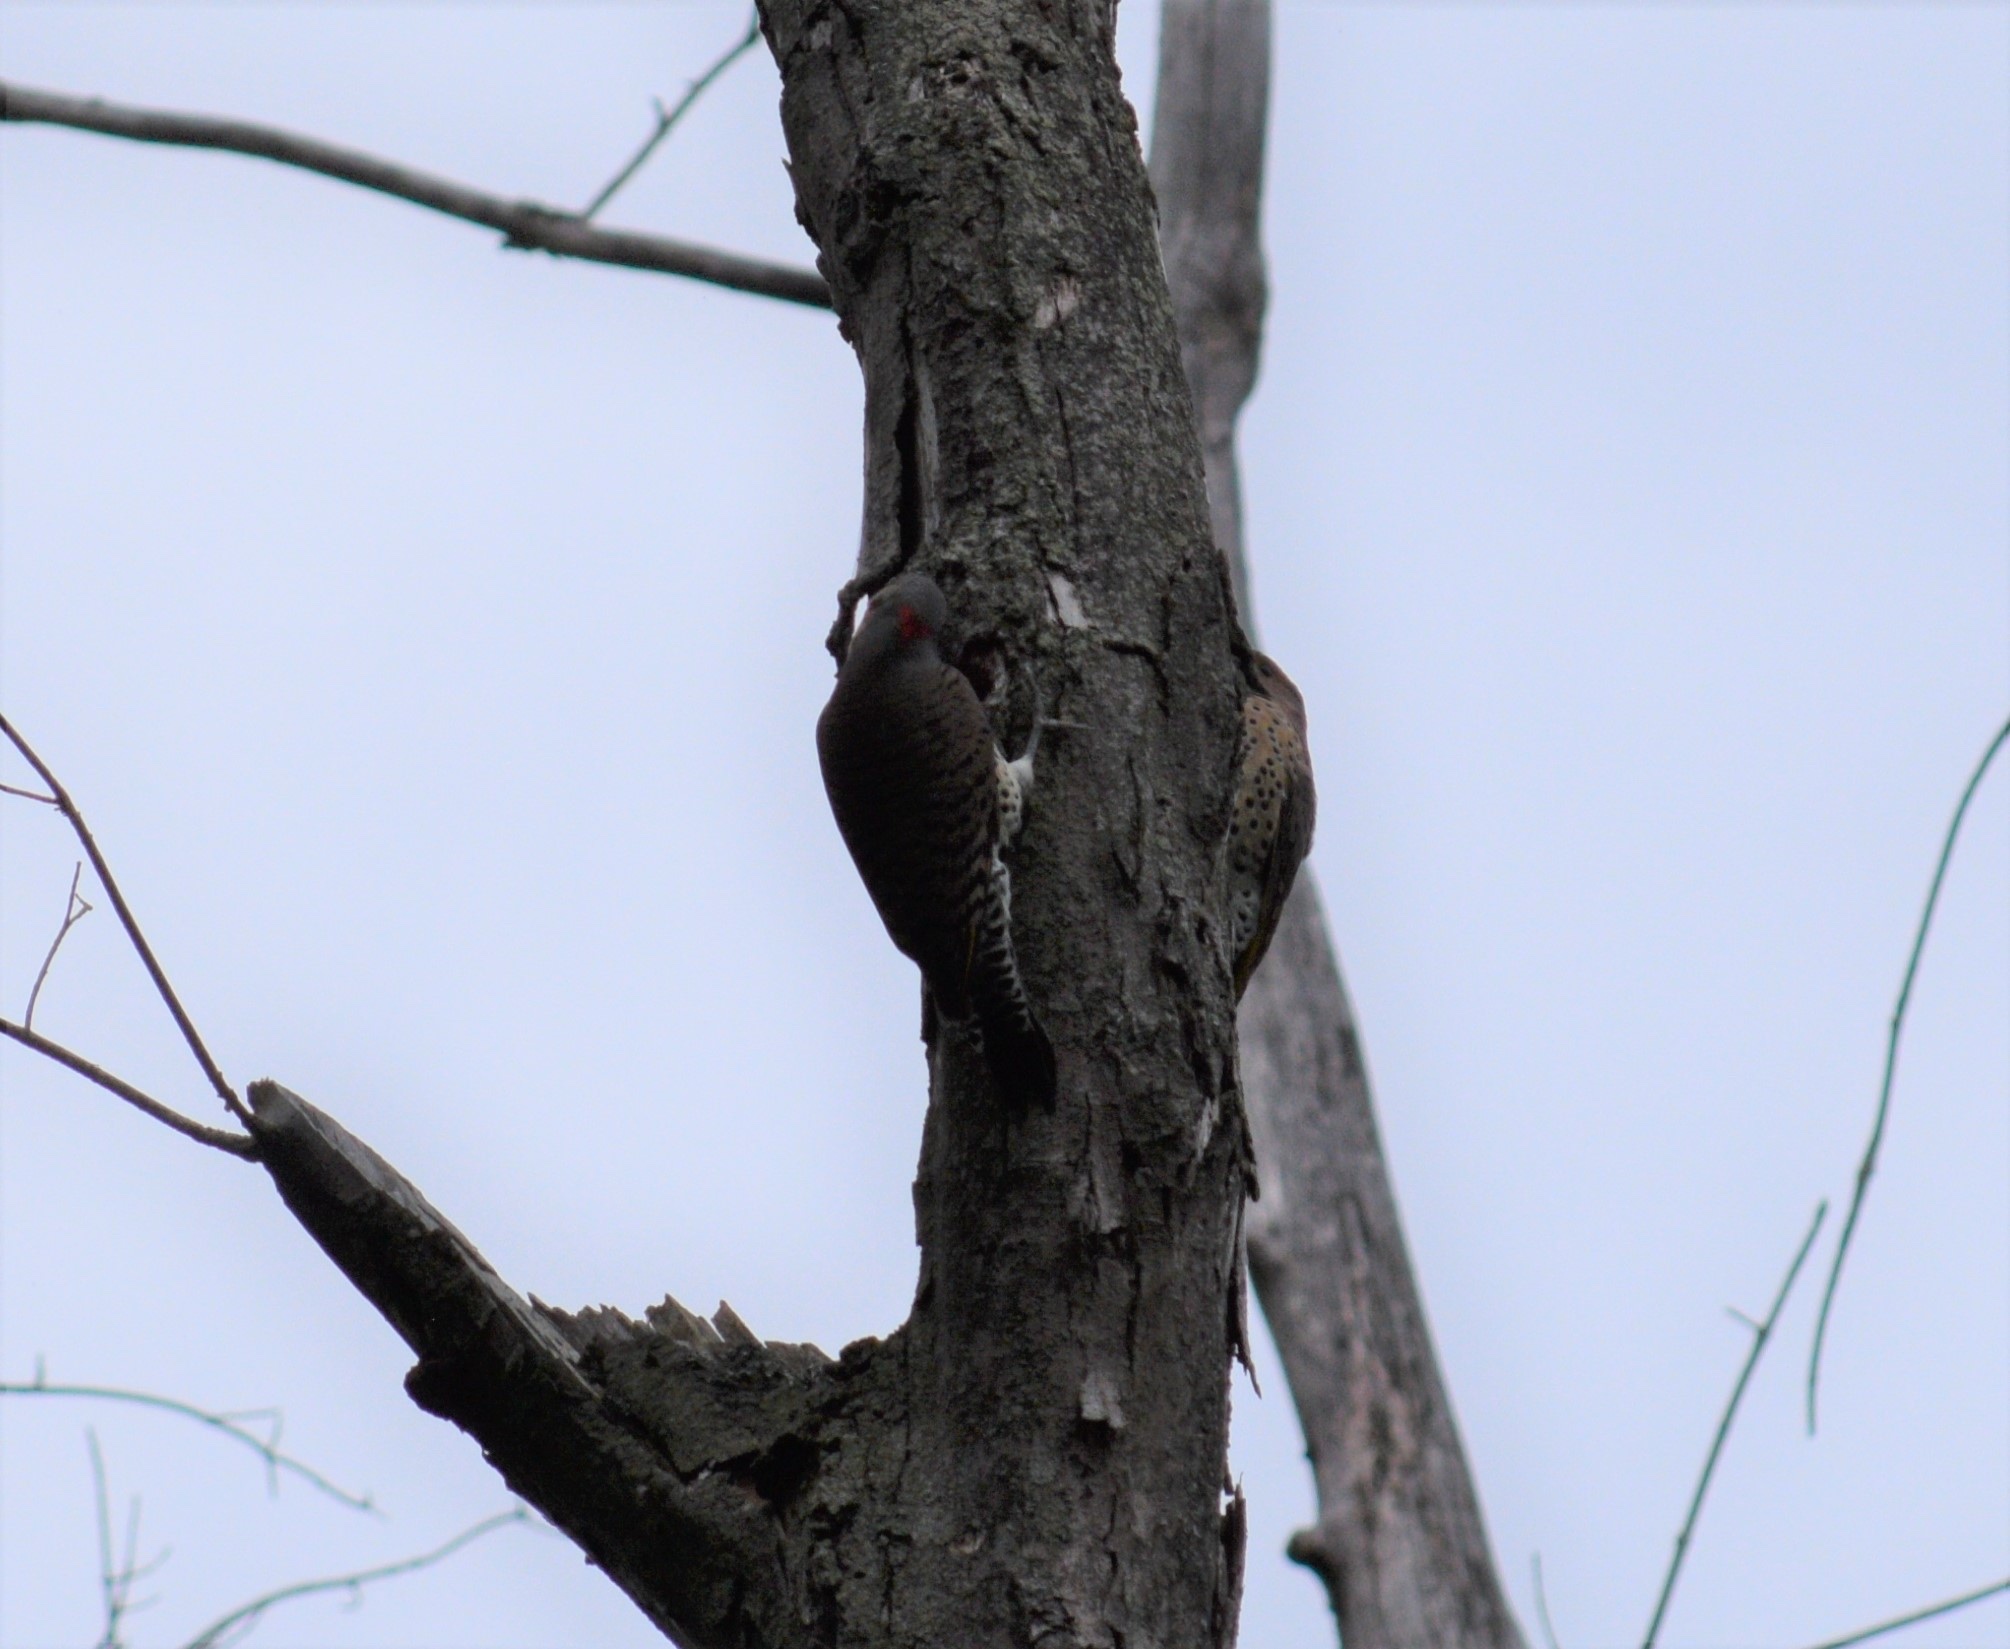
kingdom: Animalia
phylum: Chordata
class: Aves
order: Piciformes
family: Picidae
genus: Colaptes
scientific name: Colaptes auratus
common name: Northern flicker
